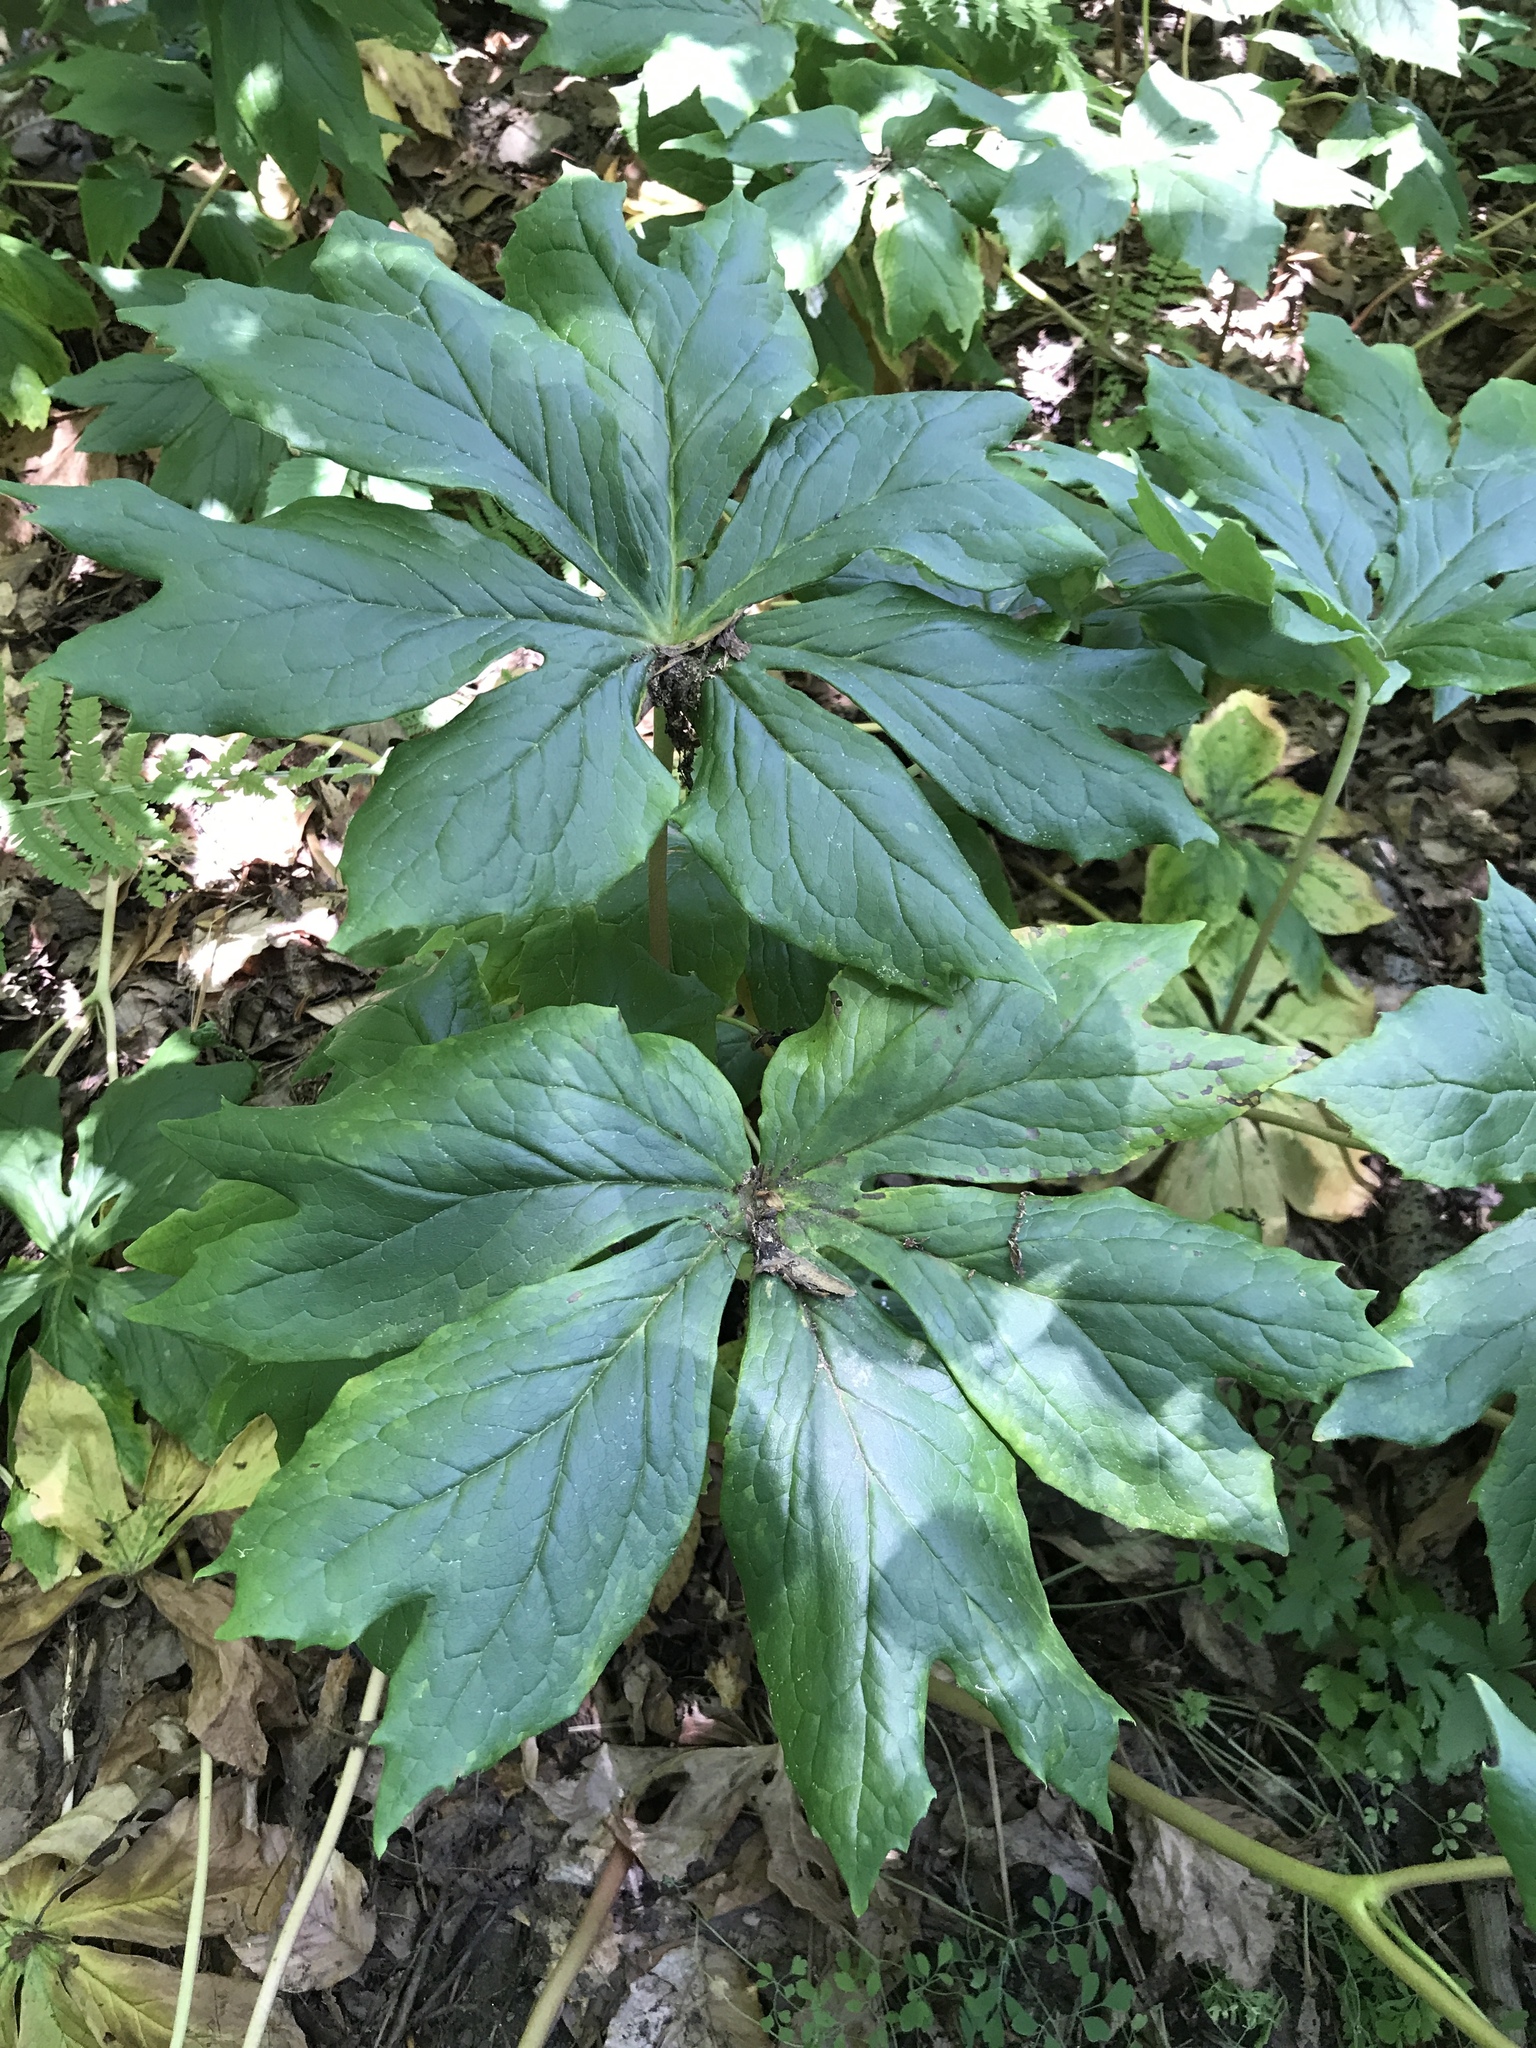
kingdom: Plantae
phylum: Tracheophyta
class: Magnoliopsida
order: Ranunculales
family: Berberidaceae
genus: Podophyllum
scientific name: Podophyllum peltatum
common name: Wild mandrake
